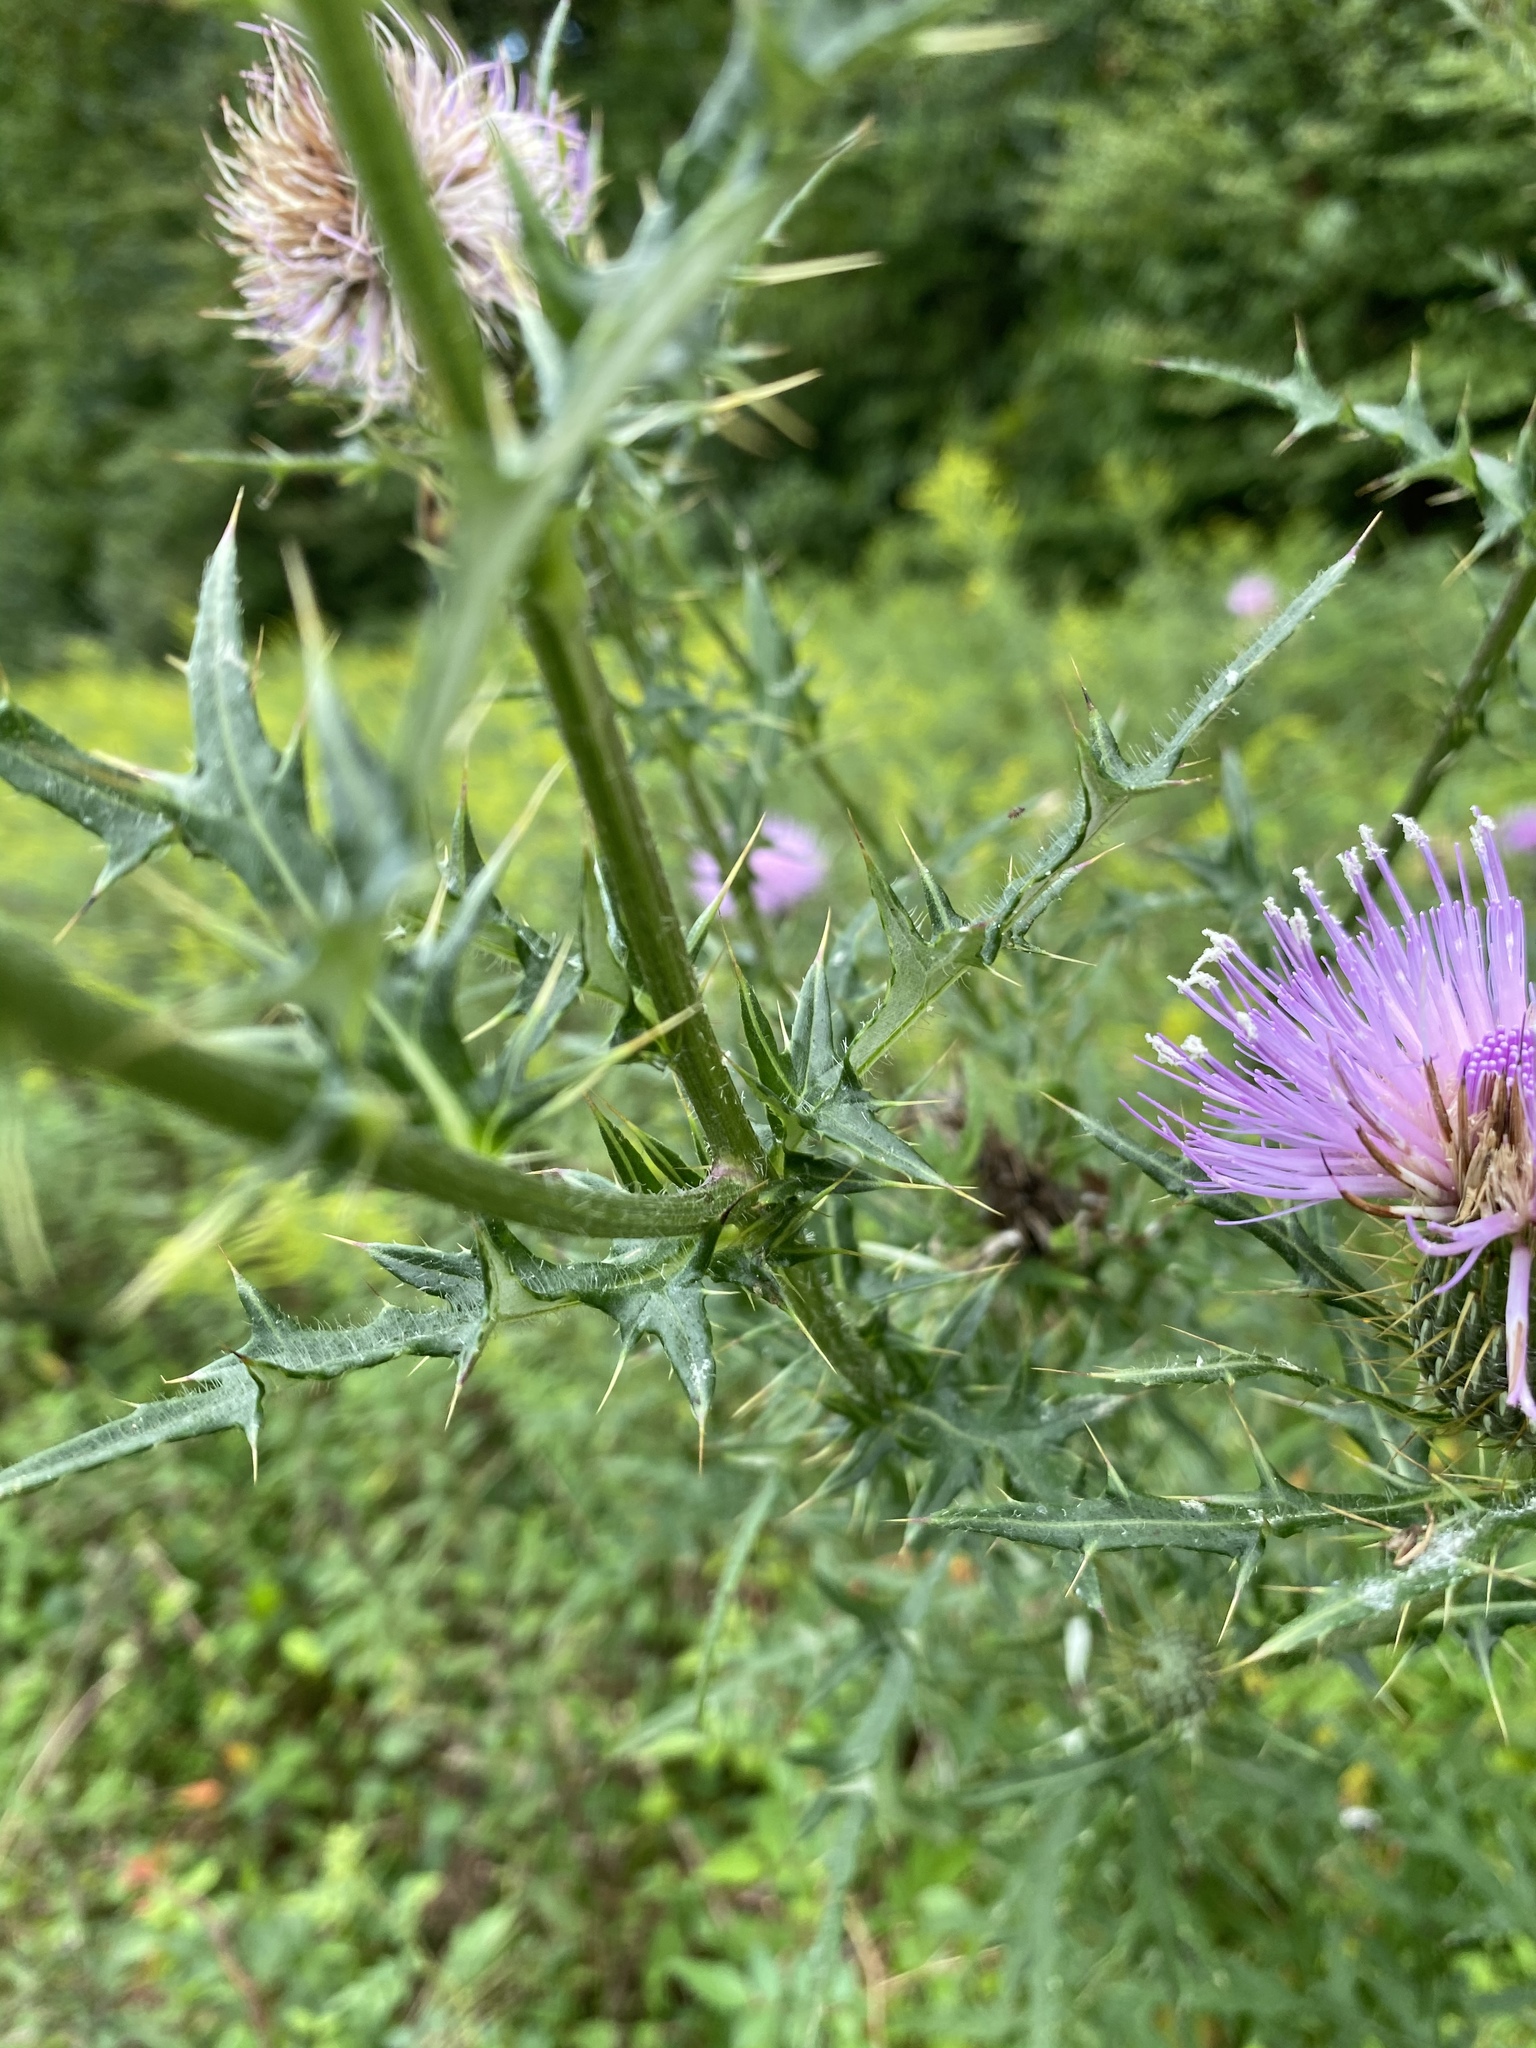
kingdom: Plantae
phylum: Tracheophyta
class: Magnoliopsida
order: Asterales
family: Asteraceae
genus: Cirsium
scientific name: Cirsium discolor
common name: Field thistle
